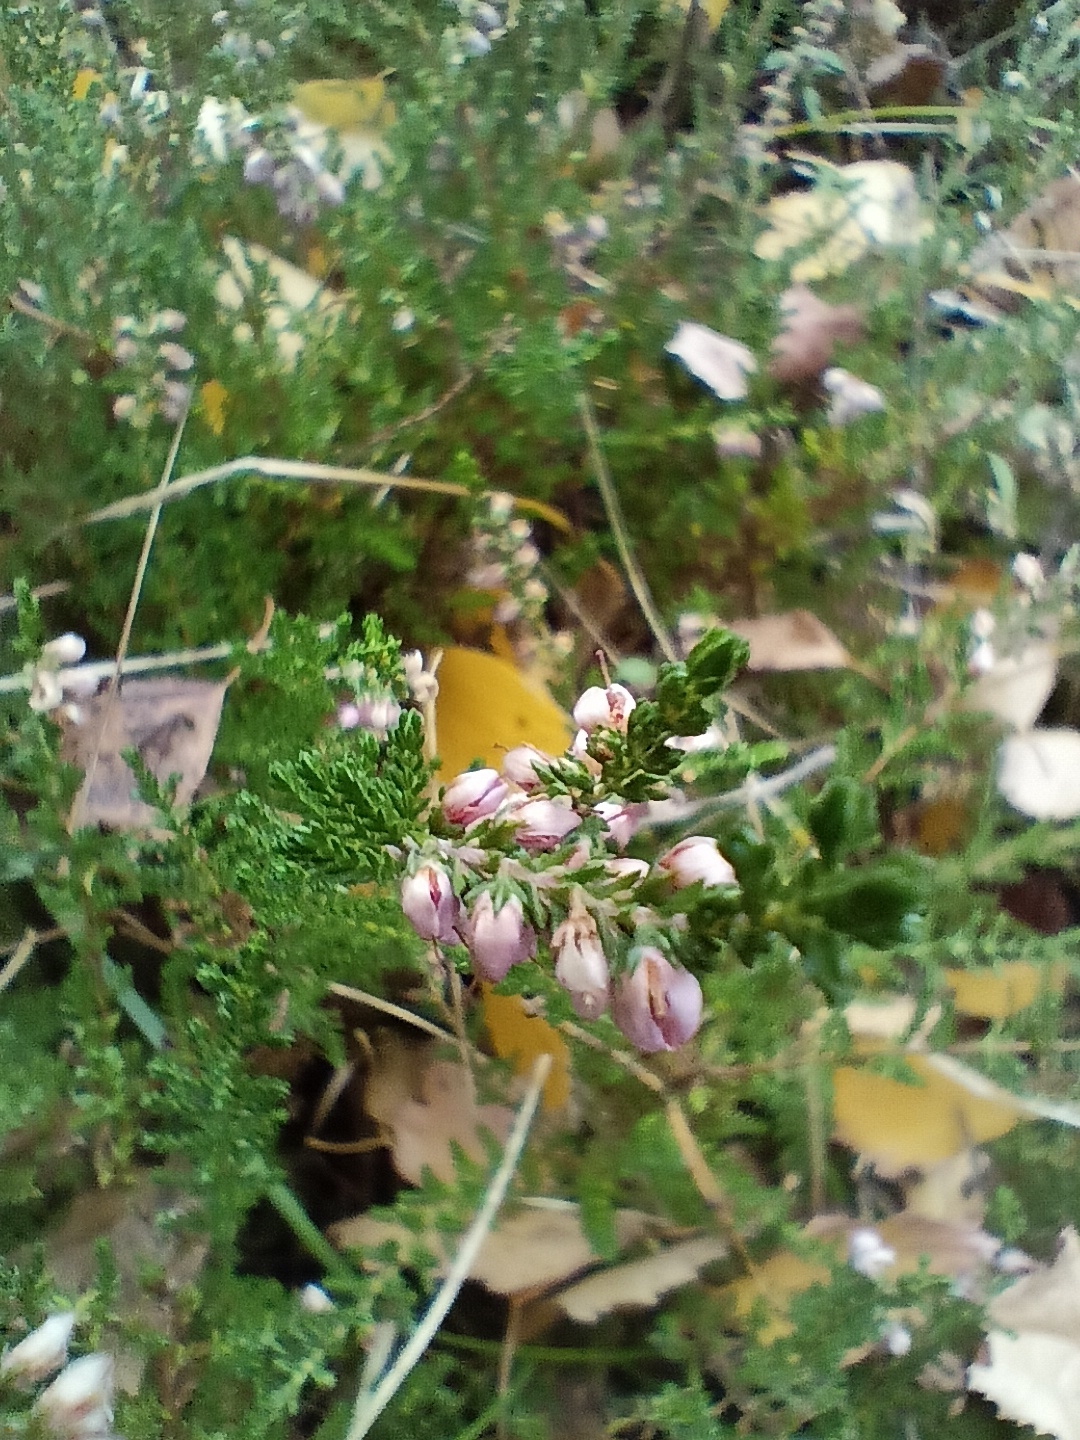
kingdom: Plantae
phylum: Tracheophyta
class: Magnoliopsida
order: Ericales
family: Ericaceae
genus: Calluna
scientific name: Calluna vulgaris
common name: Heather
